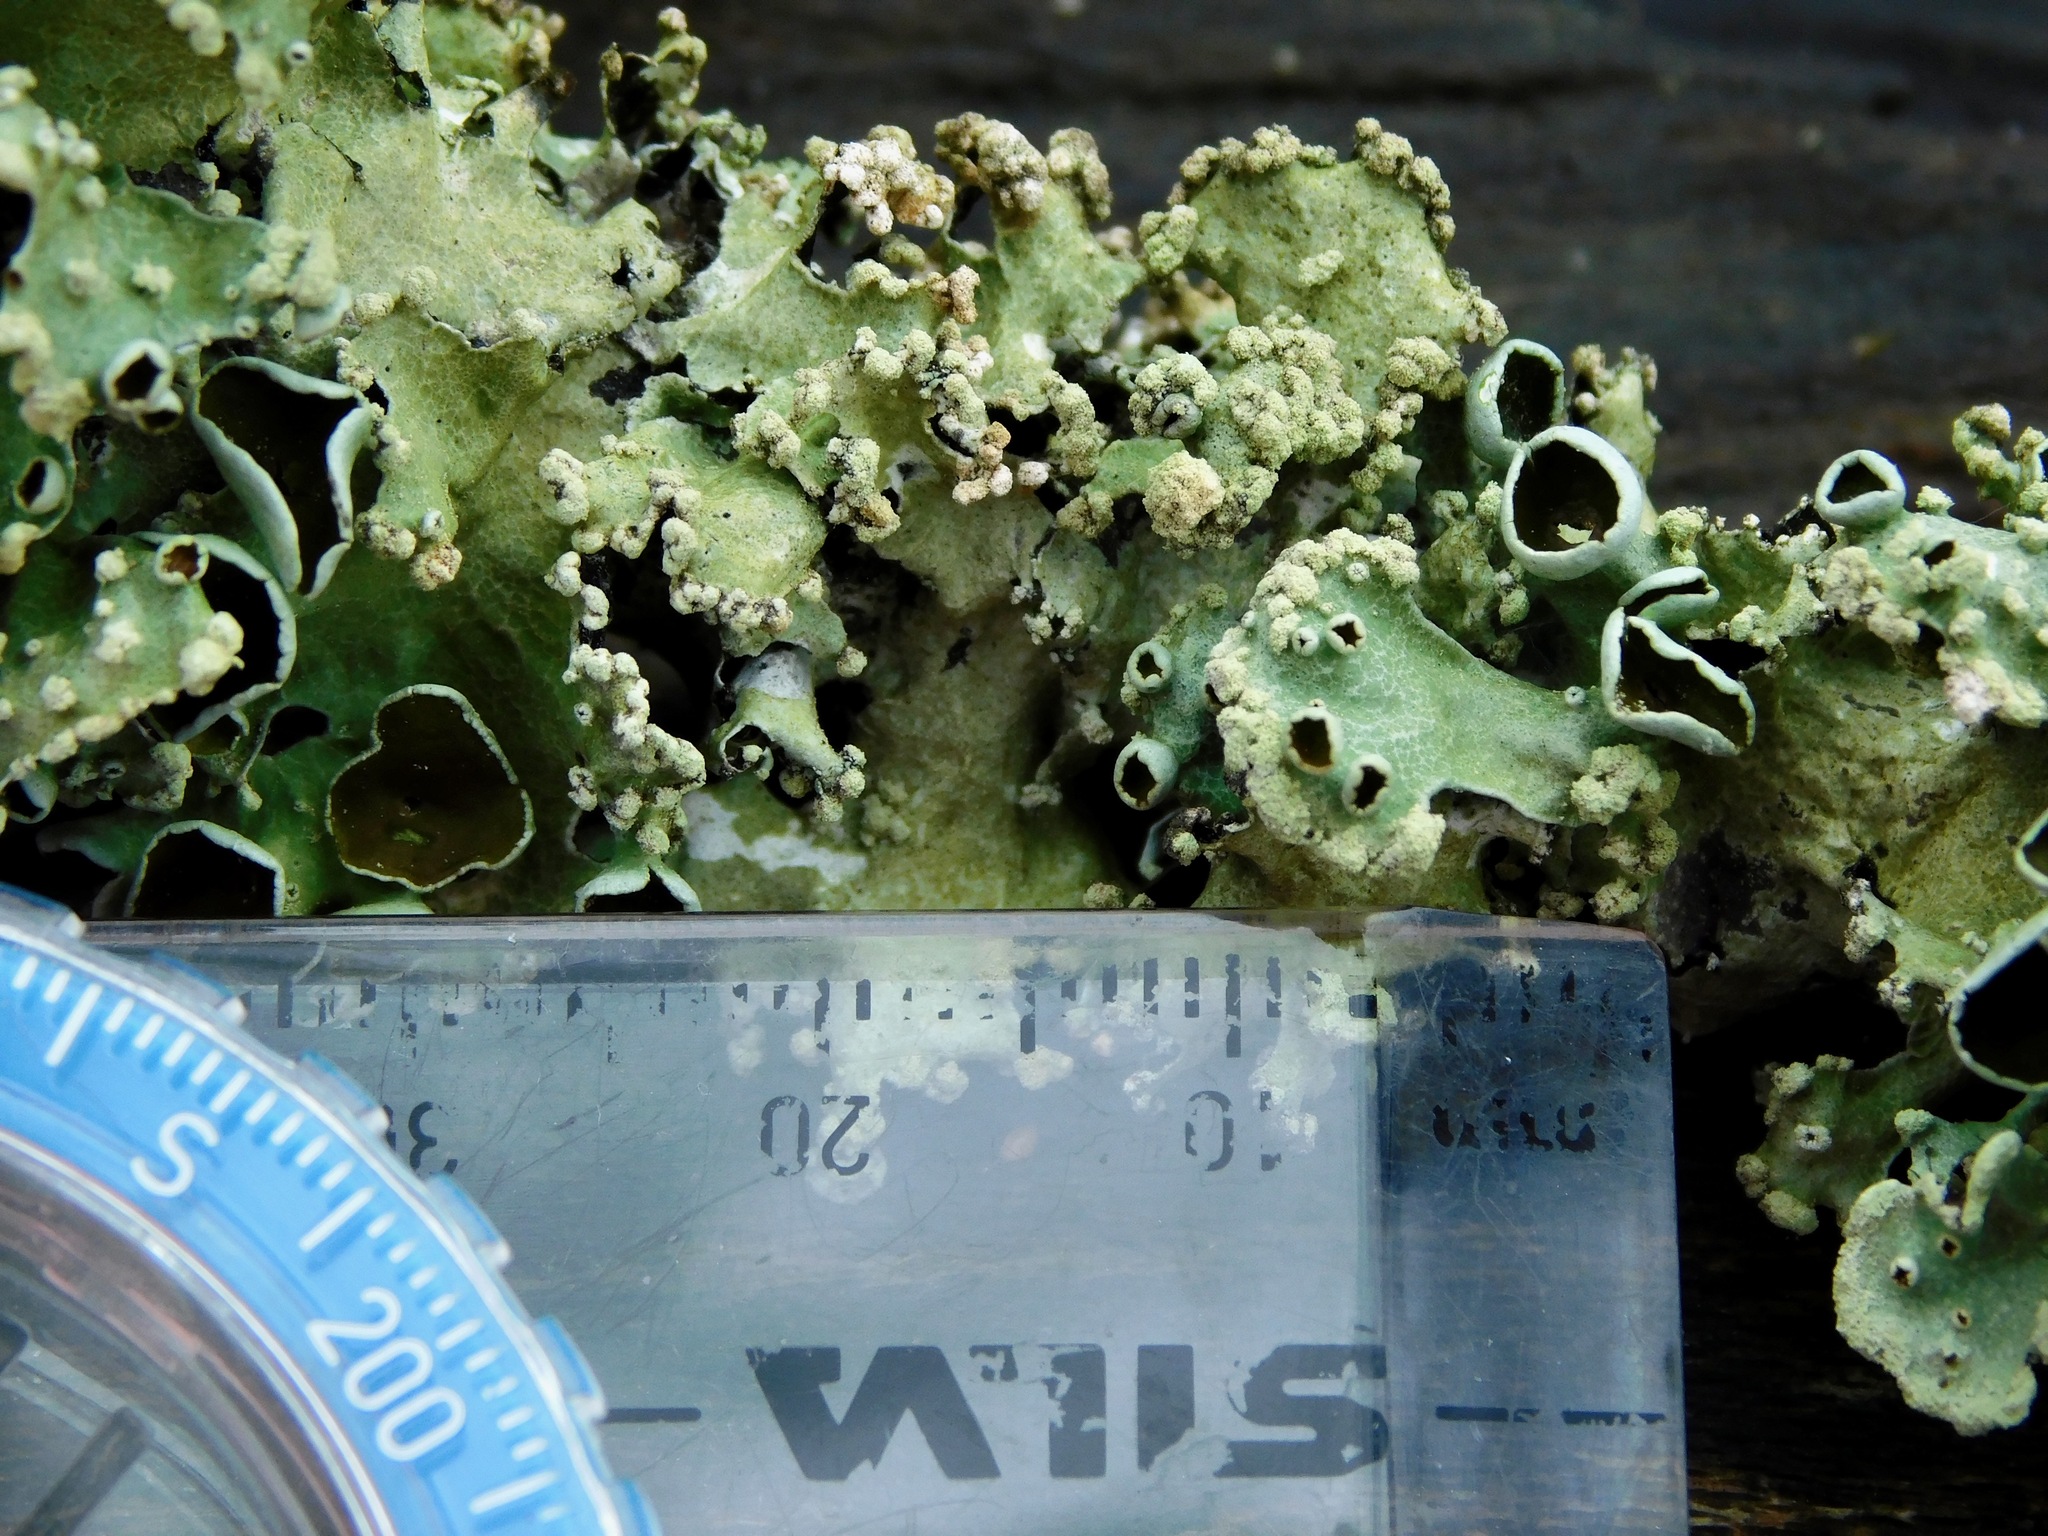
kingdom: Fungi
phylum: Ascomycota
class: Lecanoromycetes
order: Lecanorales
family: Parmeliaceae
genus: Parmotrema
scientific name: Parmotrema simulans
